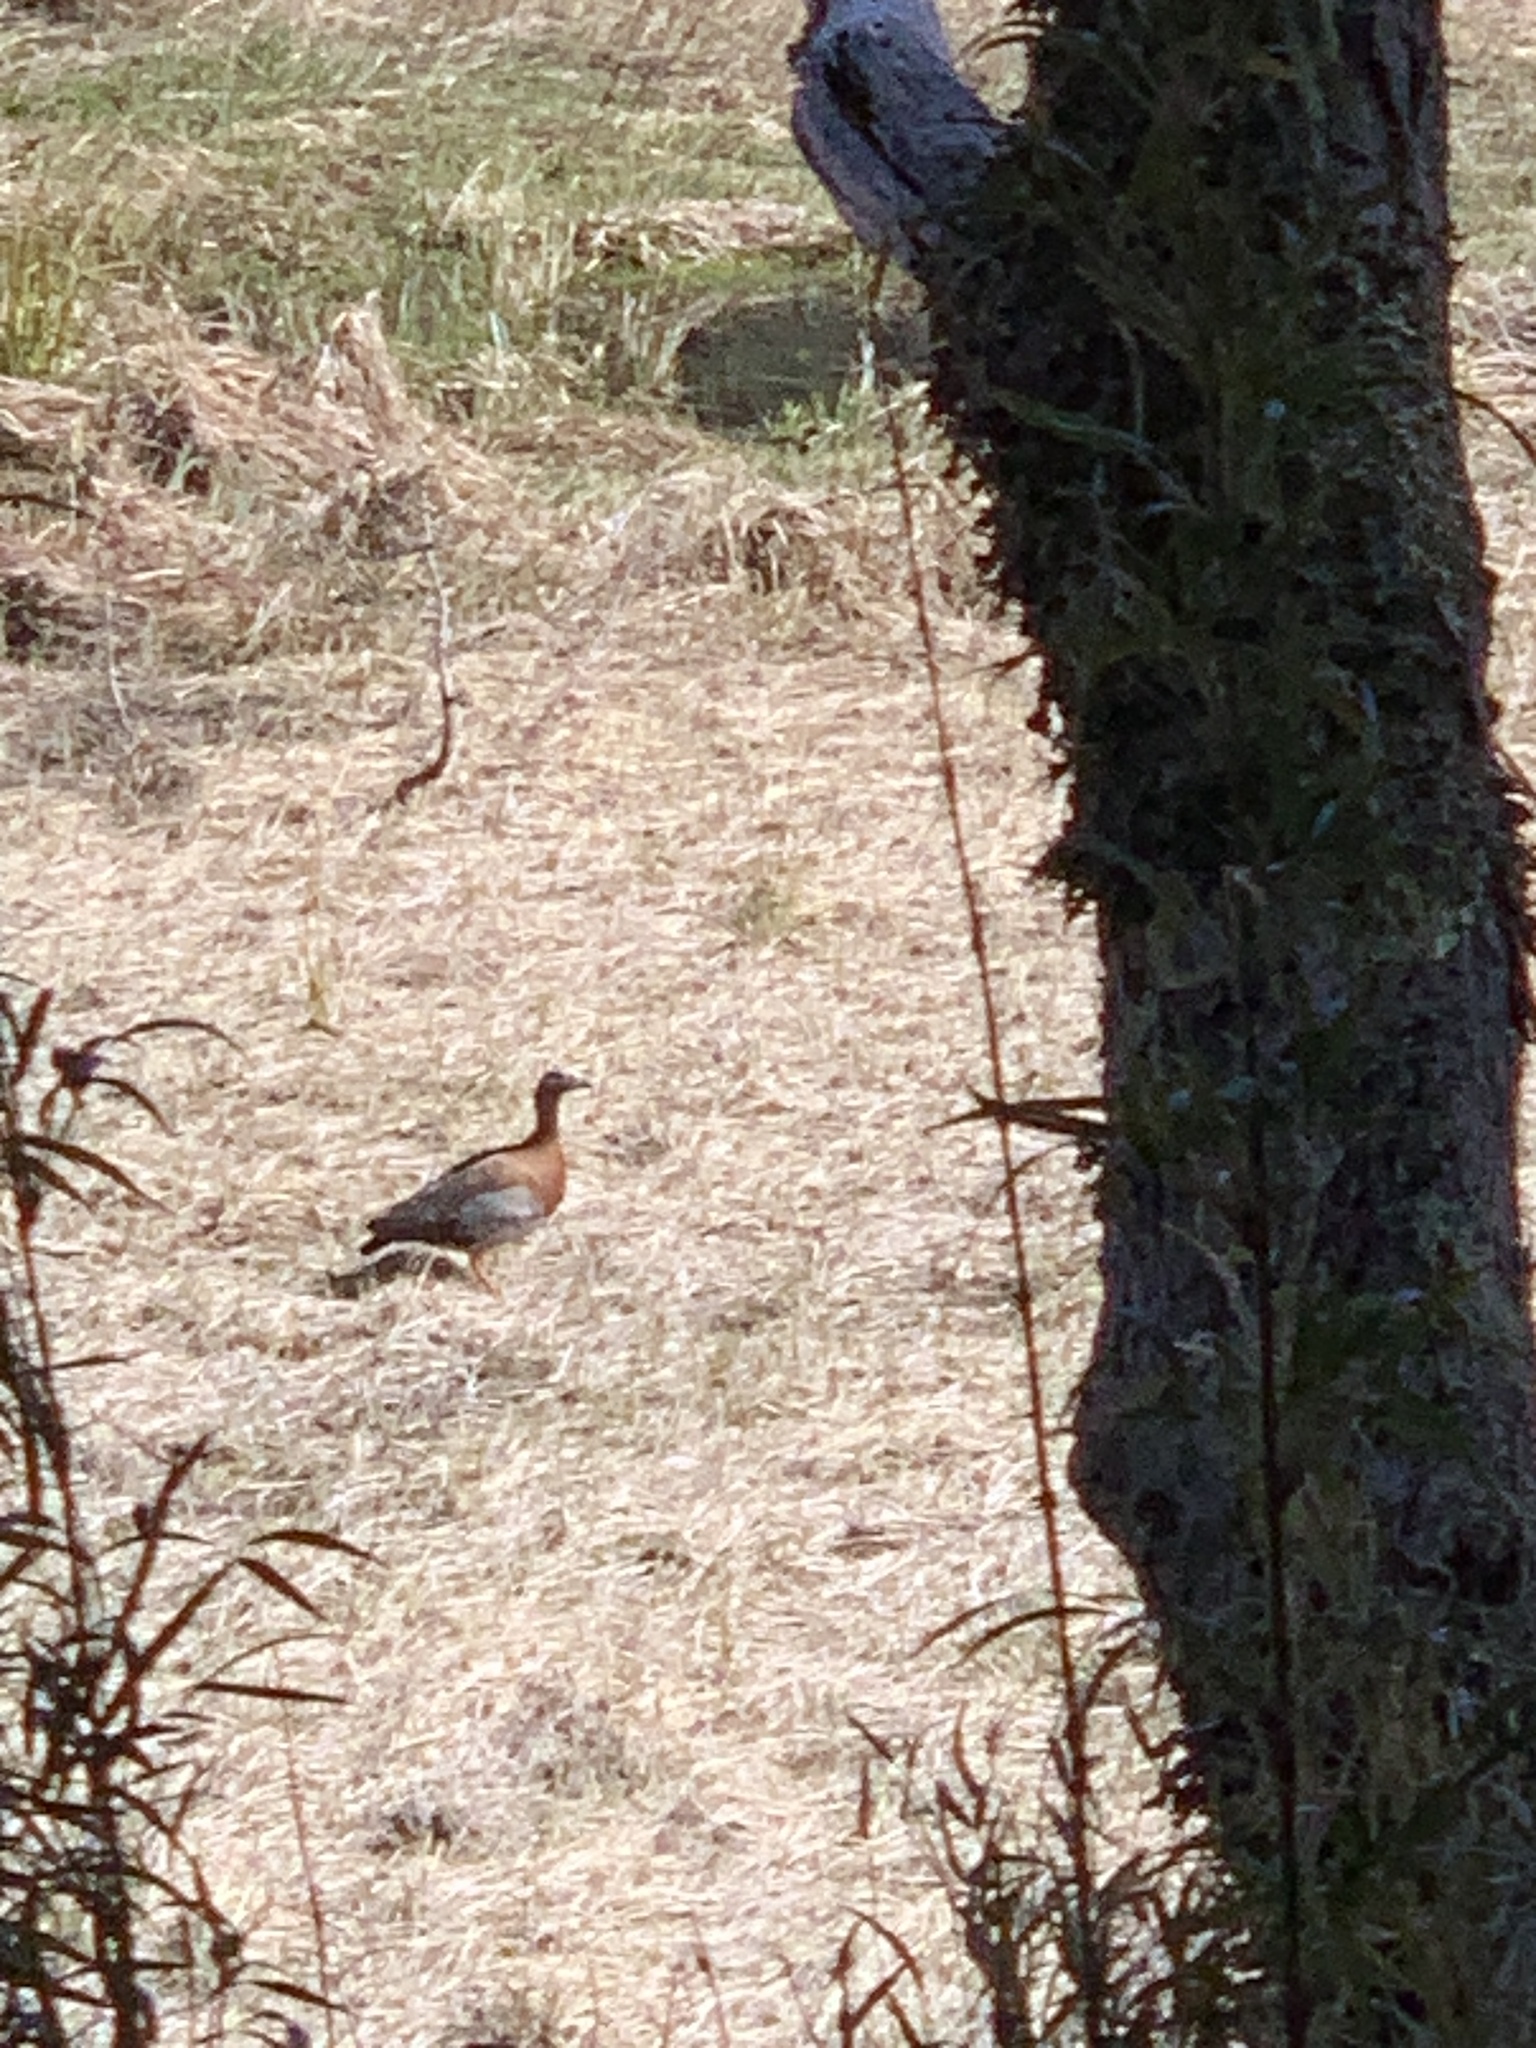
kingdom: Animalia
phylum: Chordata
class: Aves
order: Anseriformes
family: Anatidae
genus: Chloephaga
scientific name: Chloephaga poliocephala
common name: Ashy-headed goose
